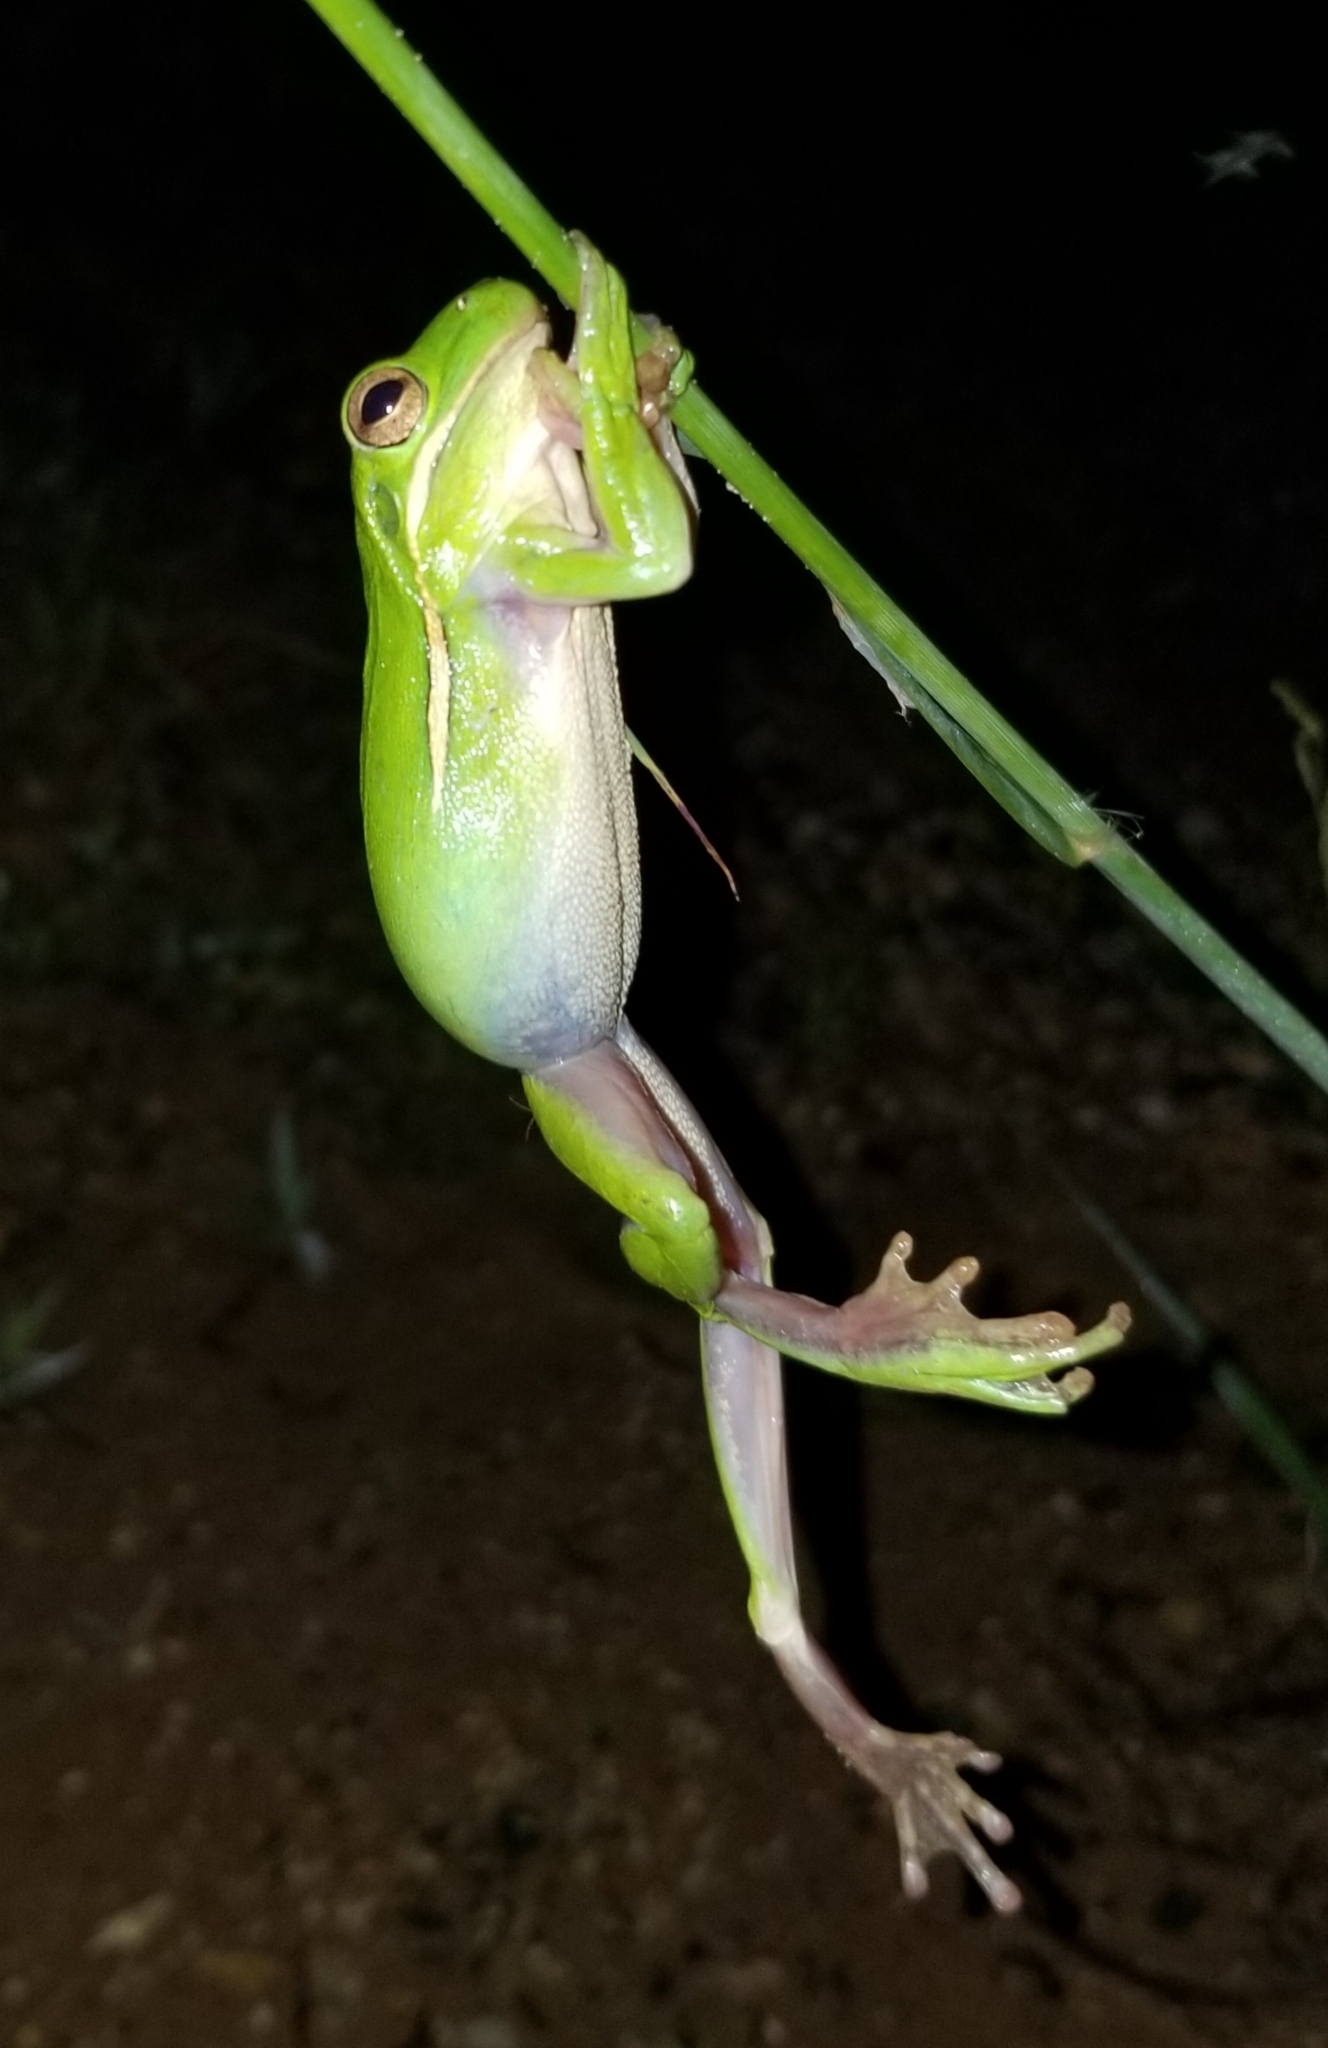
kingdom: Animalia
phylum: Chordata
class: Amphibia
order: Anura
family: Hylidae
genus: Dryophytes
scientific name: Dryophytes cinereus
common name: Green treefrog
